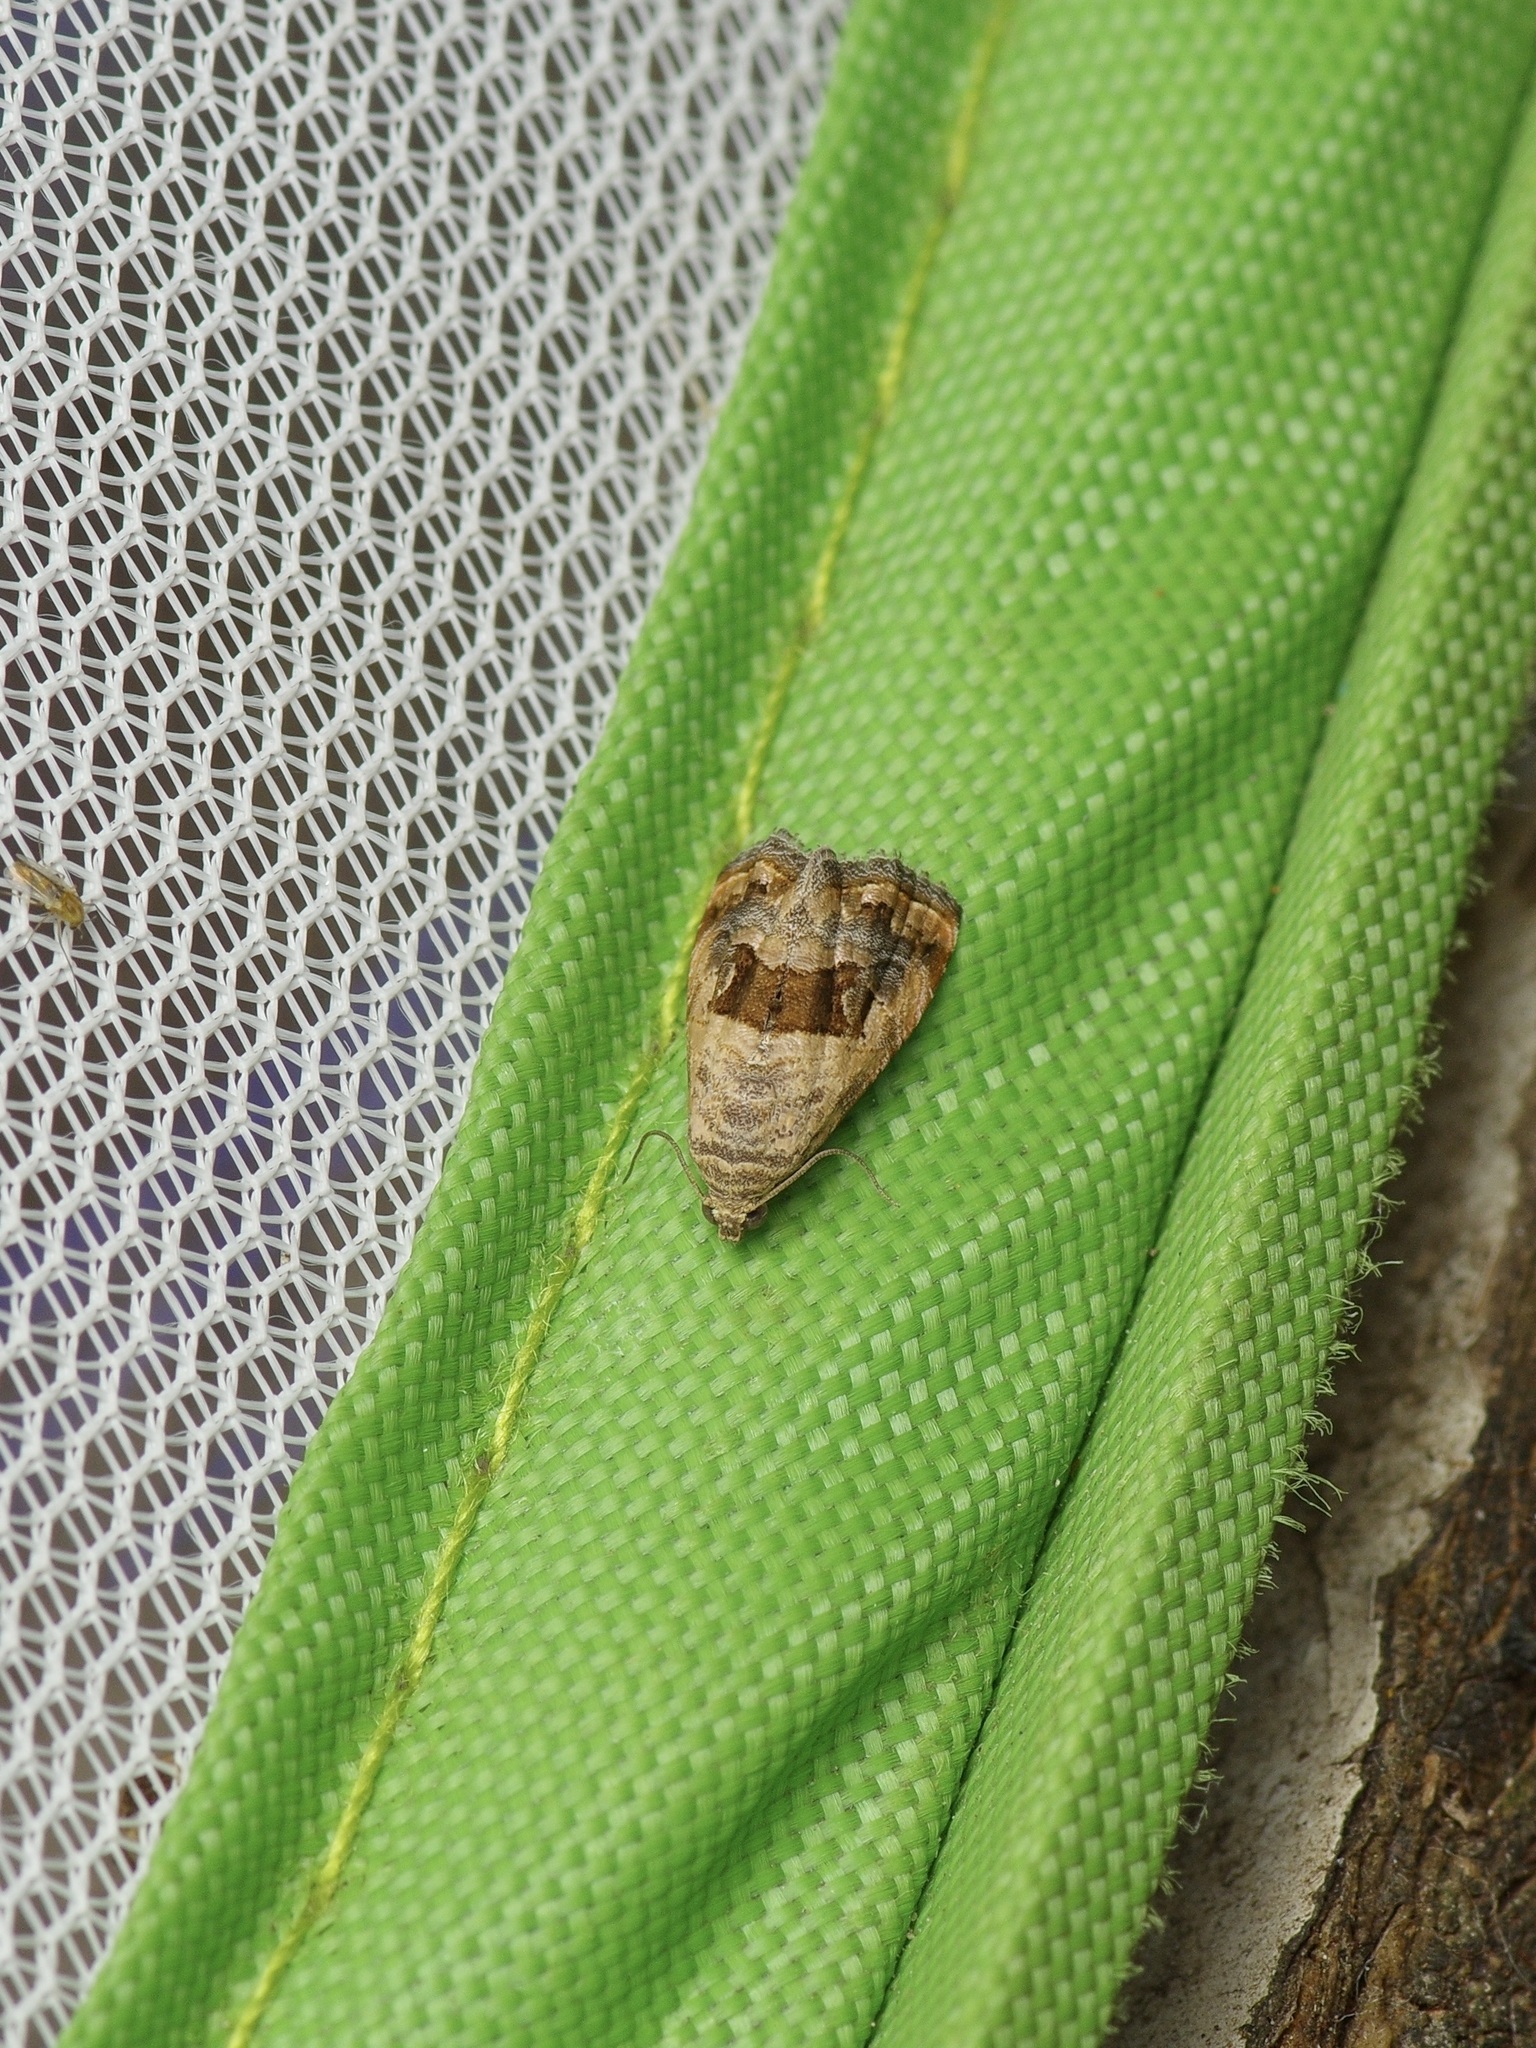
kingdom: Animalia
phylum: Arthropoda
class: Insecta
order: Lepidoptera
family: Noctuidae
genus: Tripudia
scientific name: Tripudia quadrifera
